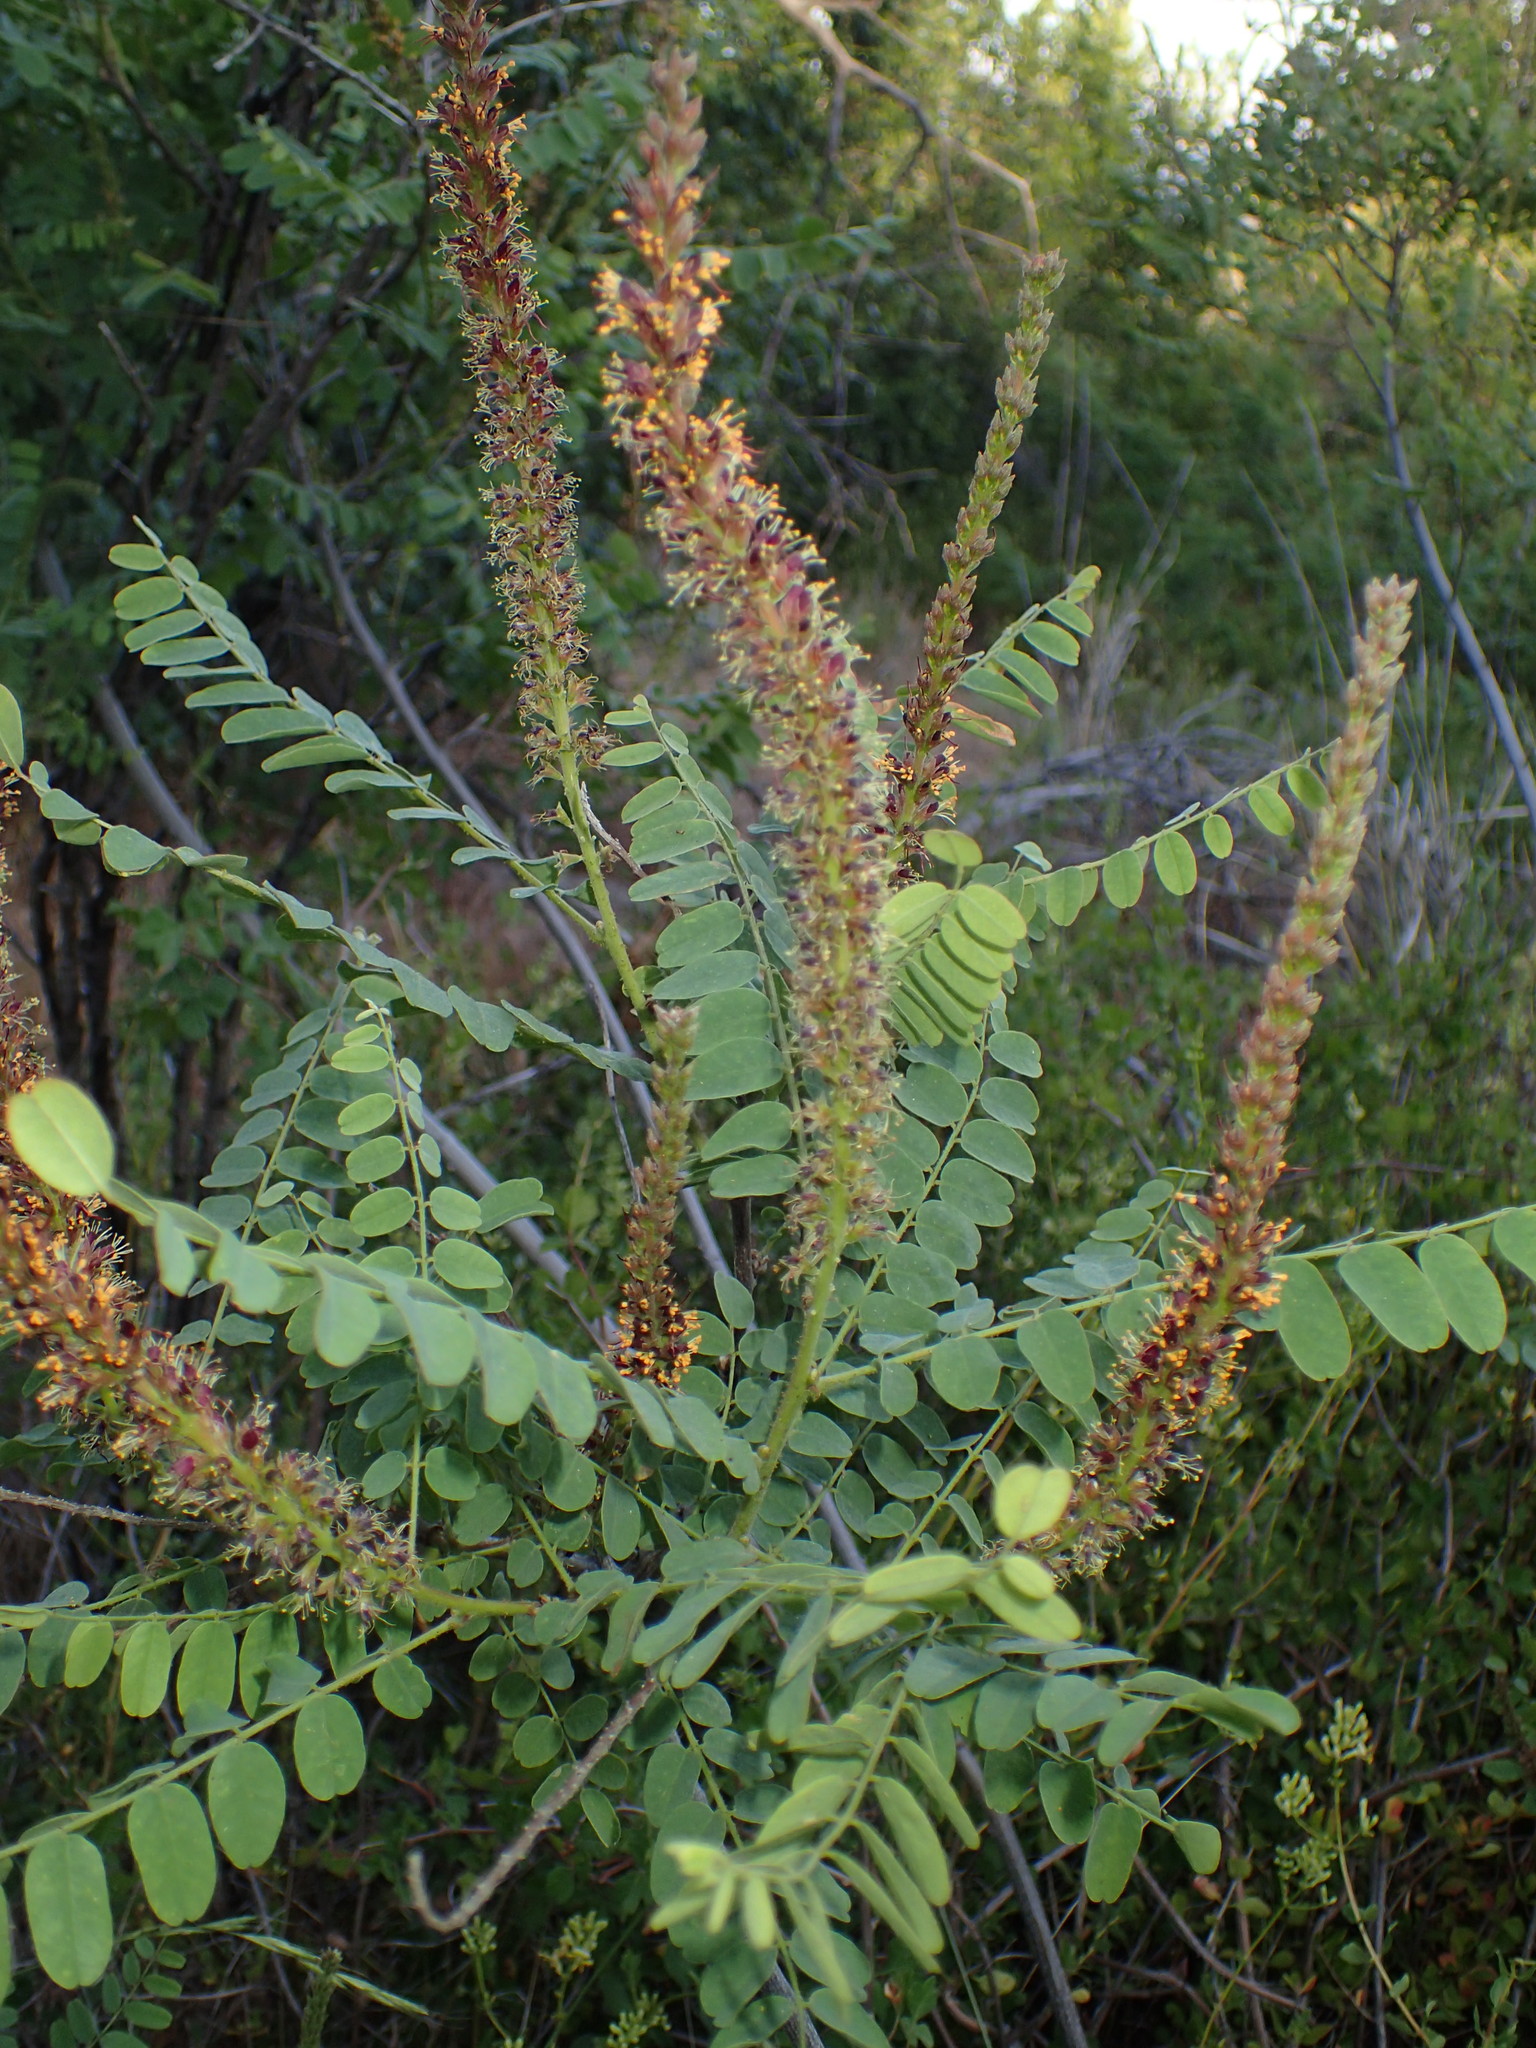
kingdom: Plantae
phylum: Tracheophyta
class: Magnoliopsida
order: Fabales
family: Fabaceae
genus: Amorpha
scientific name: Amorpha californica
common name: California indigobush
